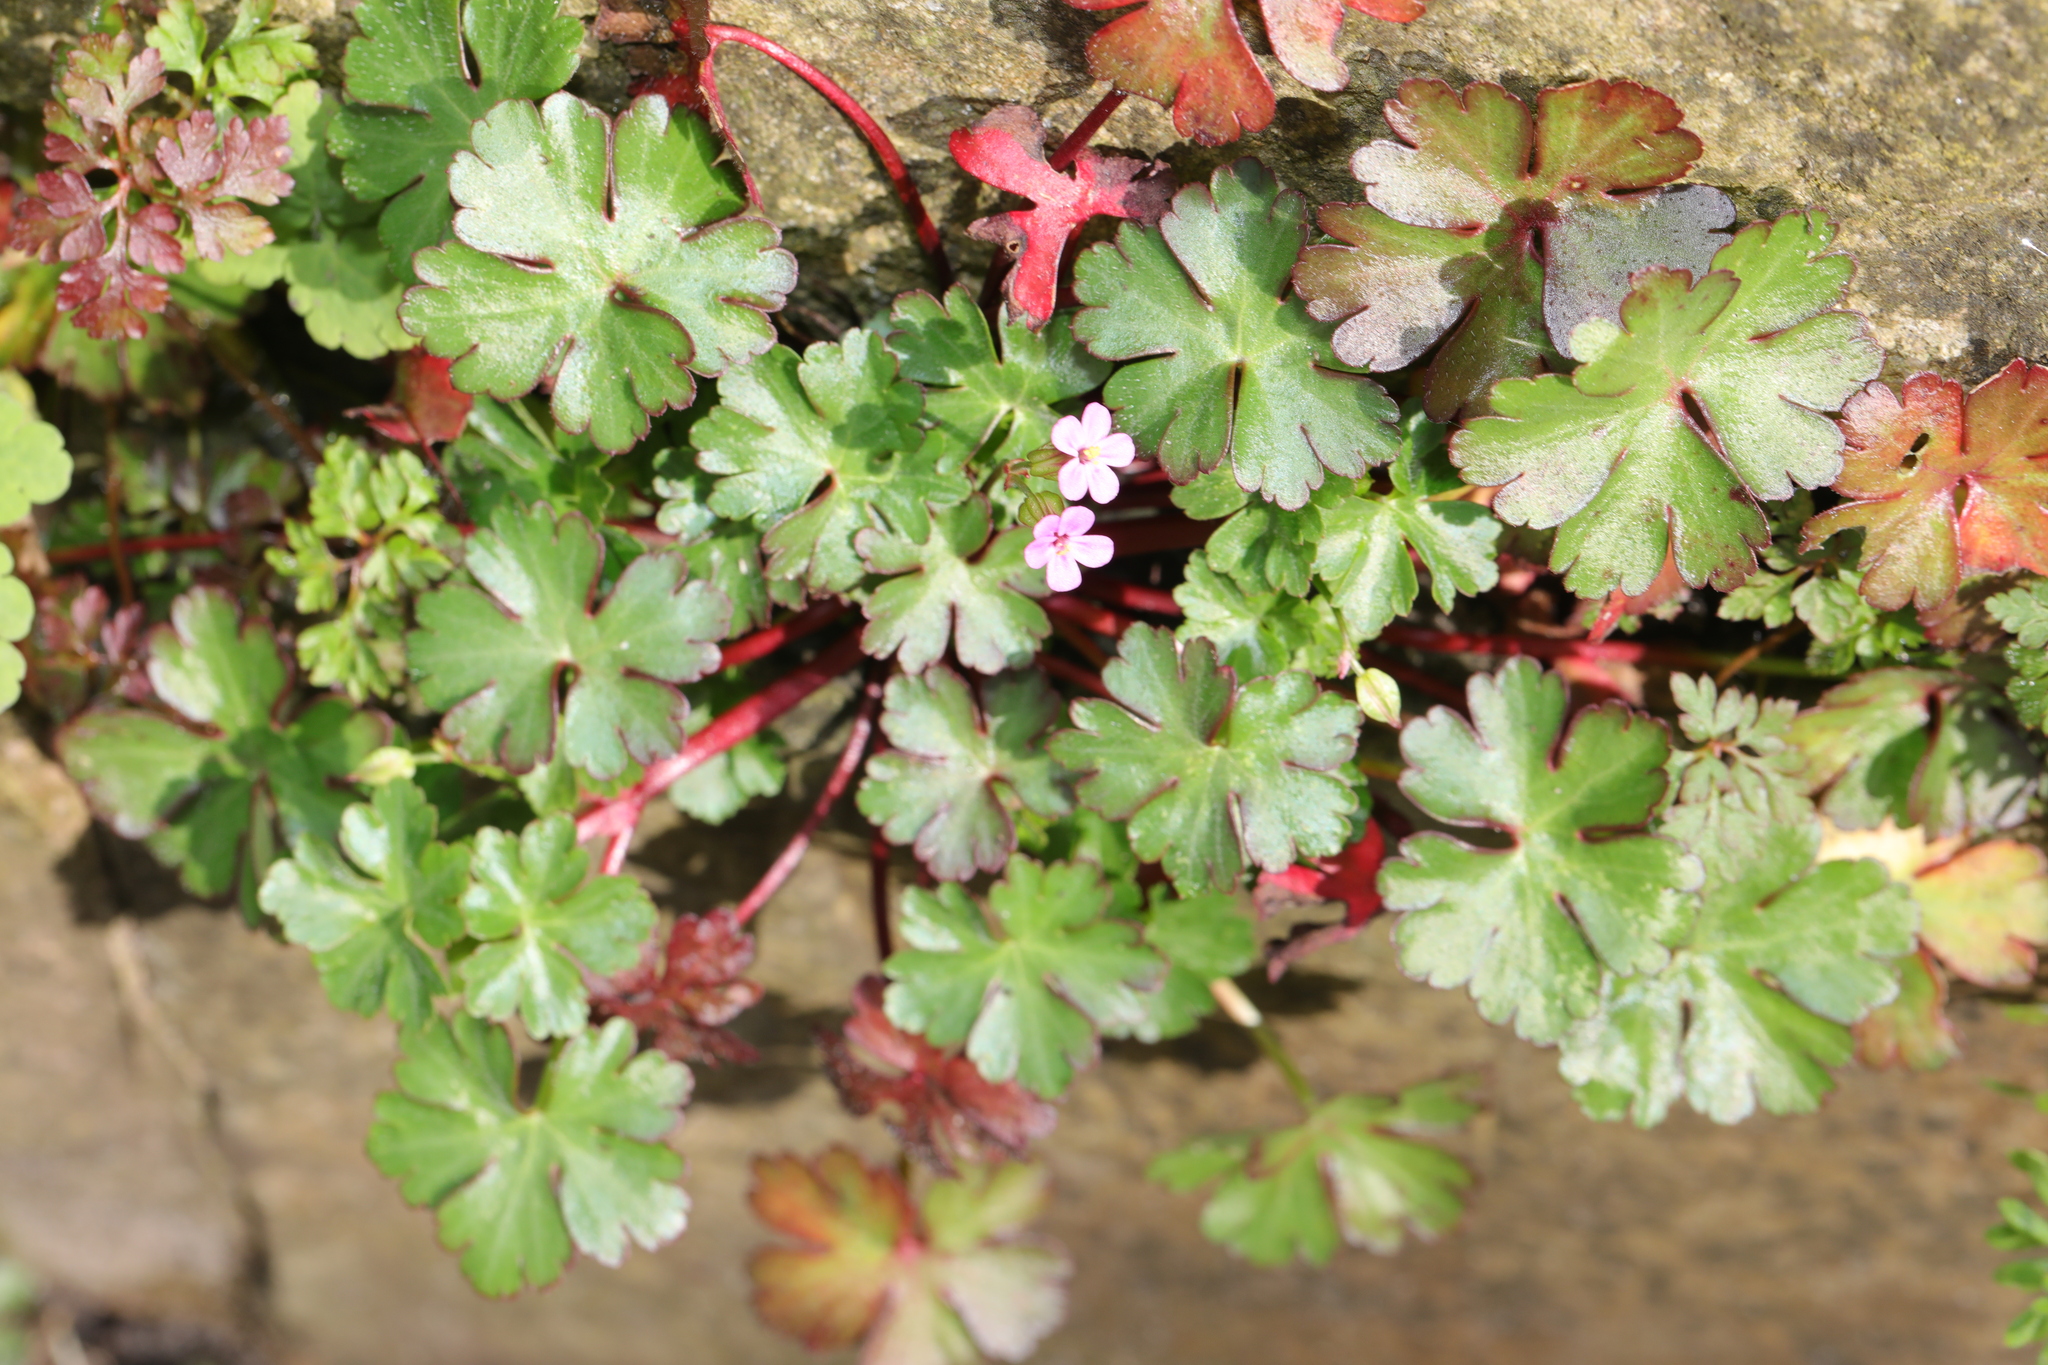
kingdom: Plantae
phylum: Tracheophyta
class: Magnoliopsida
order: Geraniales
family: Geraniaceae
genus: Geranium
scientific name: Geranium lucidum
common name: Shining crane's-bill
